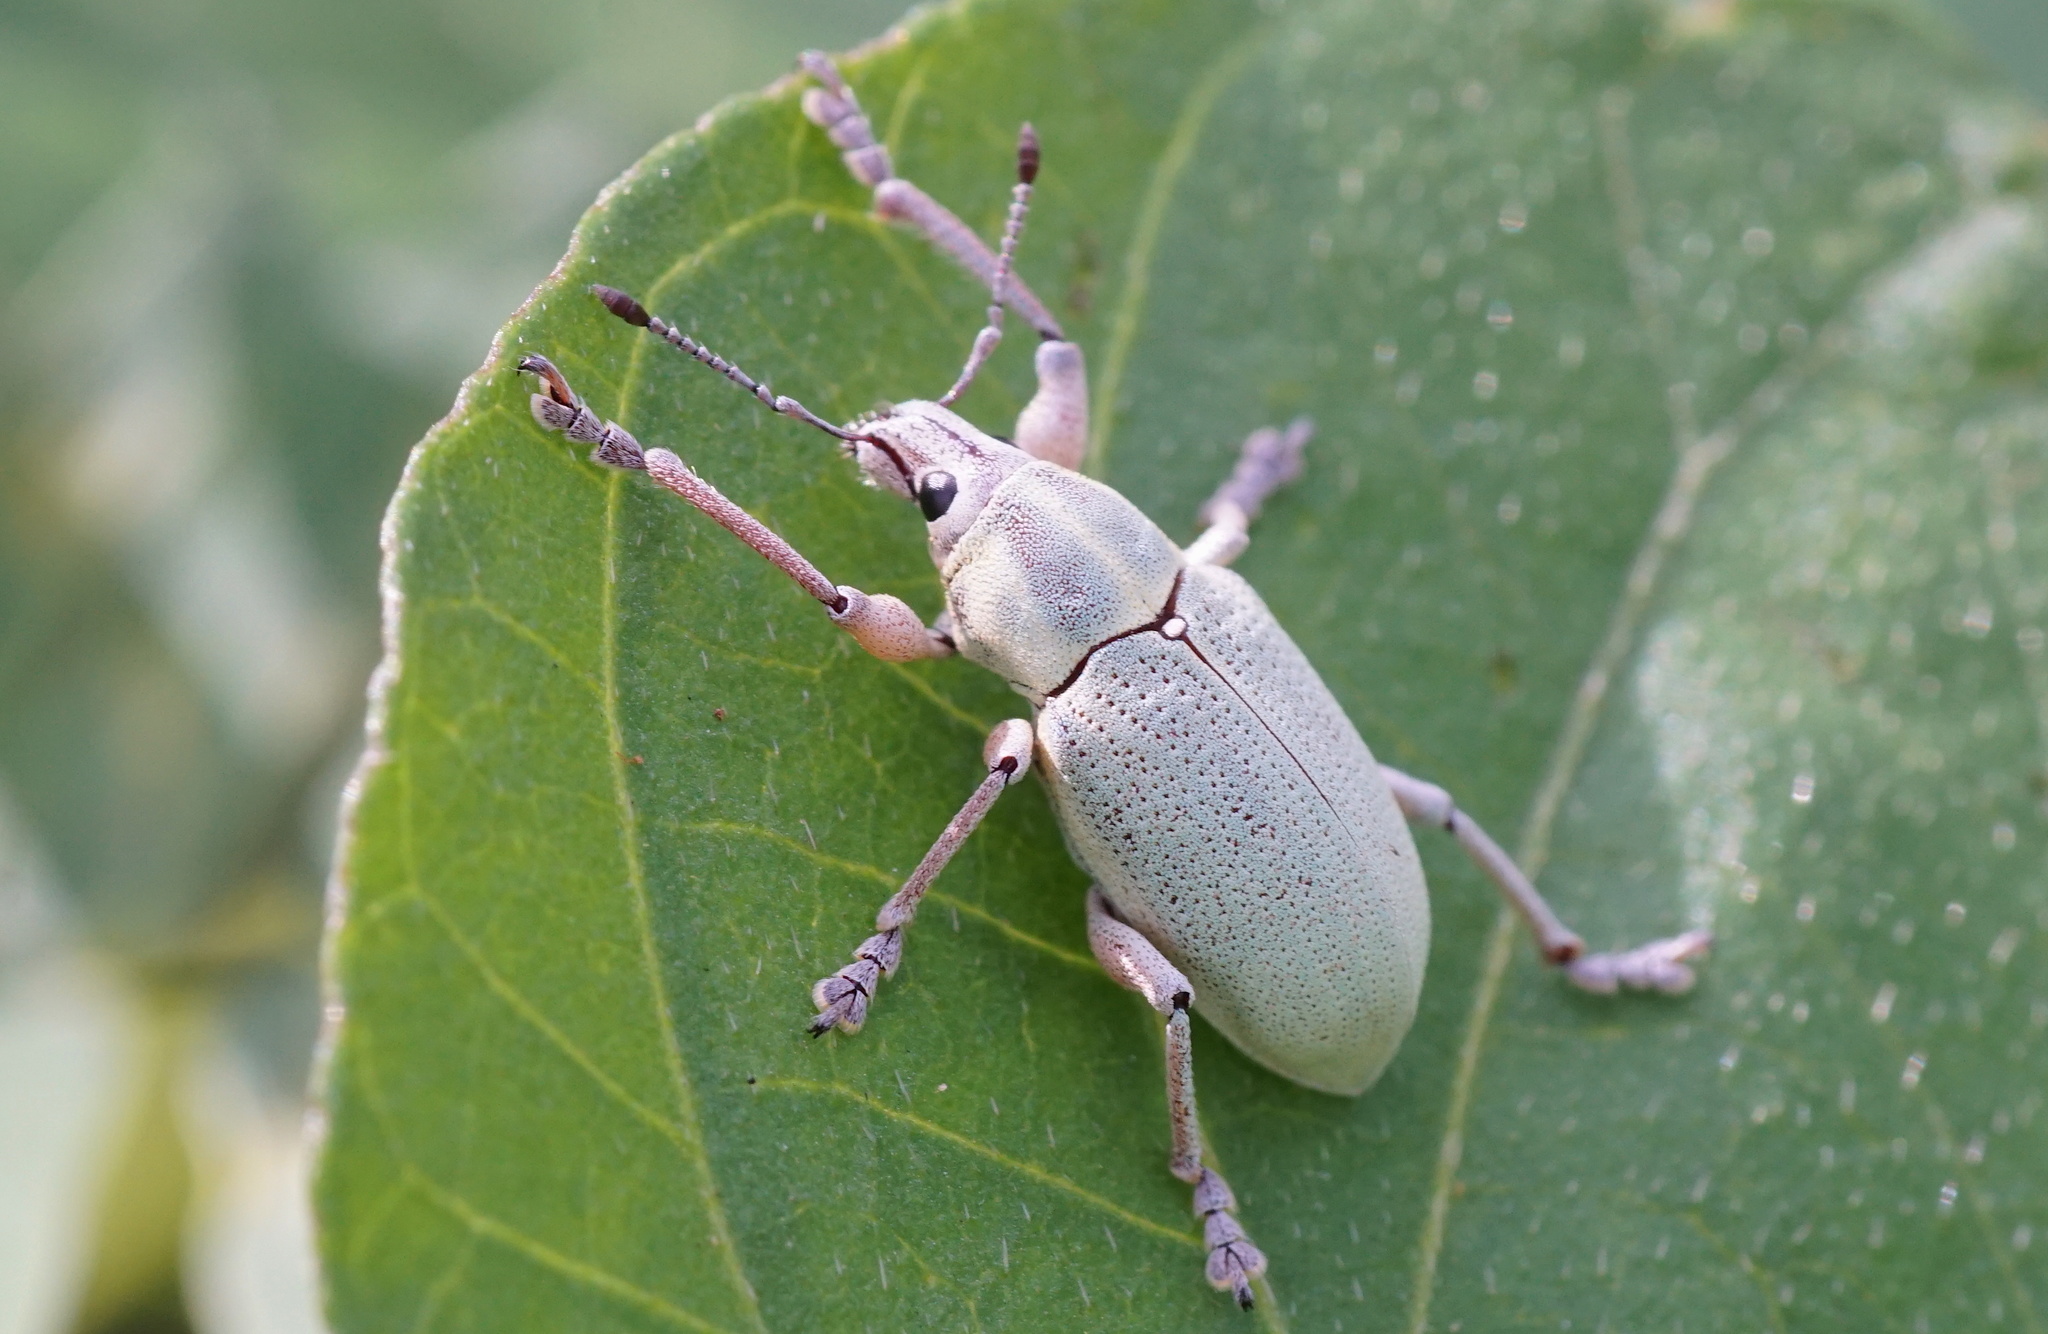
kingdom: Animalia
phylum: Arthropoda
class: Insecta
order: Coleoptera
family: Curculionidae
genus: Pachnaeus
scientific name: Pachnaeus litus
